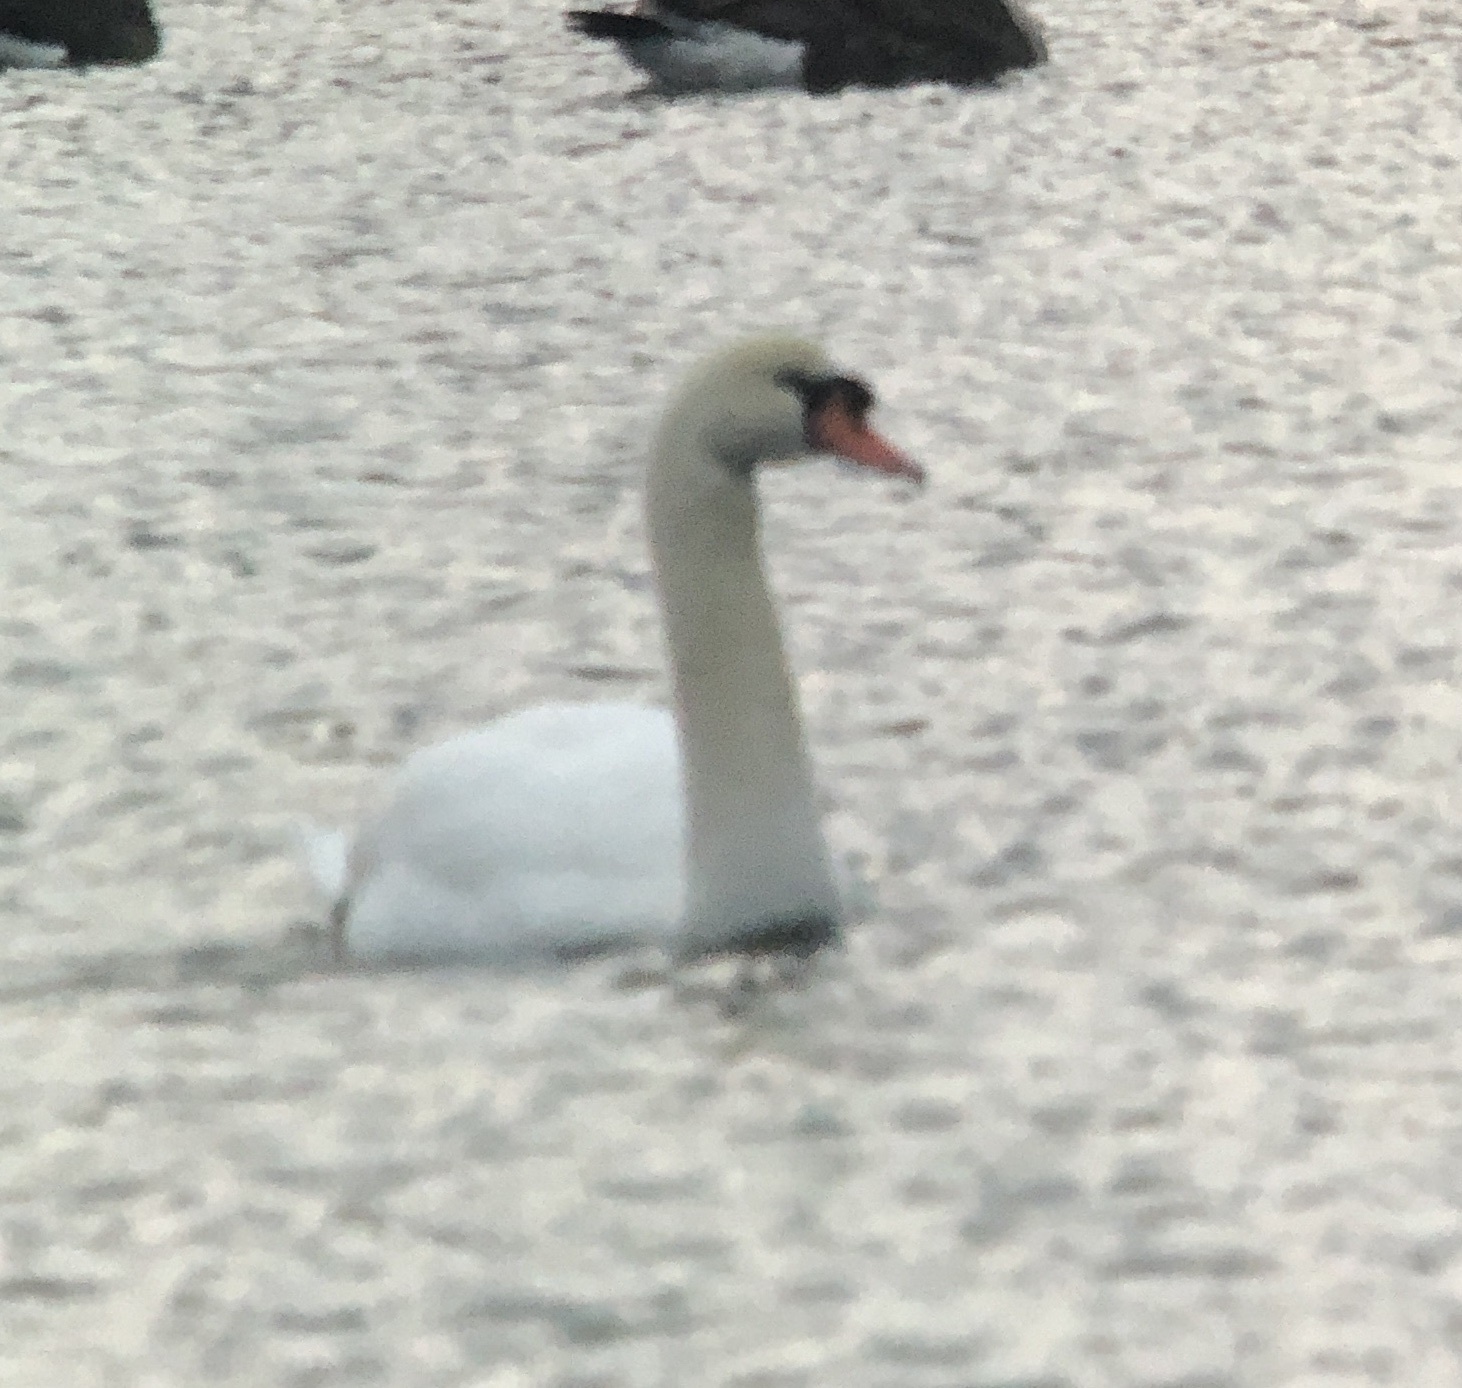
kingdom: Animalia
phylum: Chordata
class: Aves
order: Anseriformes
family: Anatidae
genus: Cygnus
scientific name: Cygnus olor
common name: Mute swan
